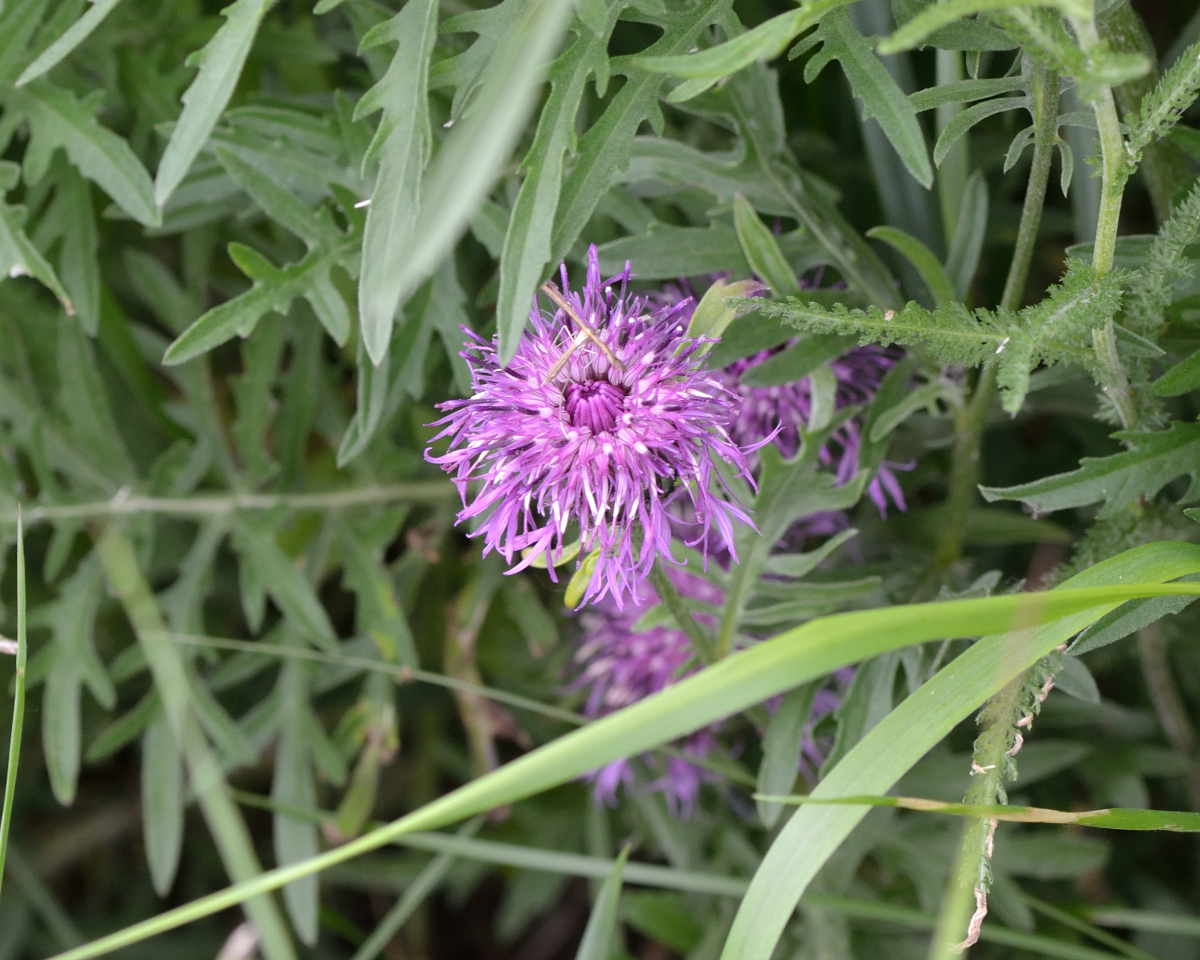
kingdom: Plantae
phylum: Tracheophyta
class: Magnoliopsida
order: Asterales
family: Asteraceae
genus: Centaurea
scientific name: Centaurea scabiosa
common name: Greater knapweed
